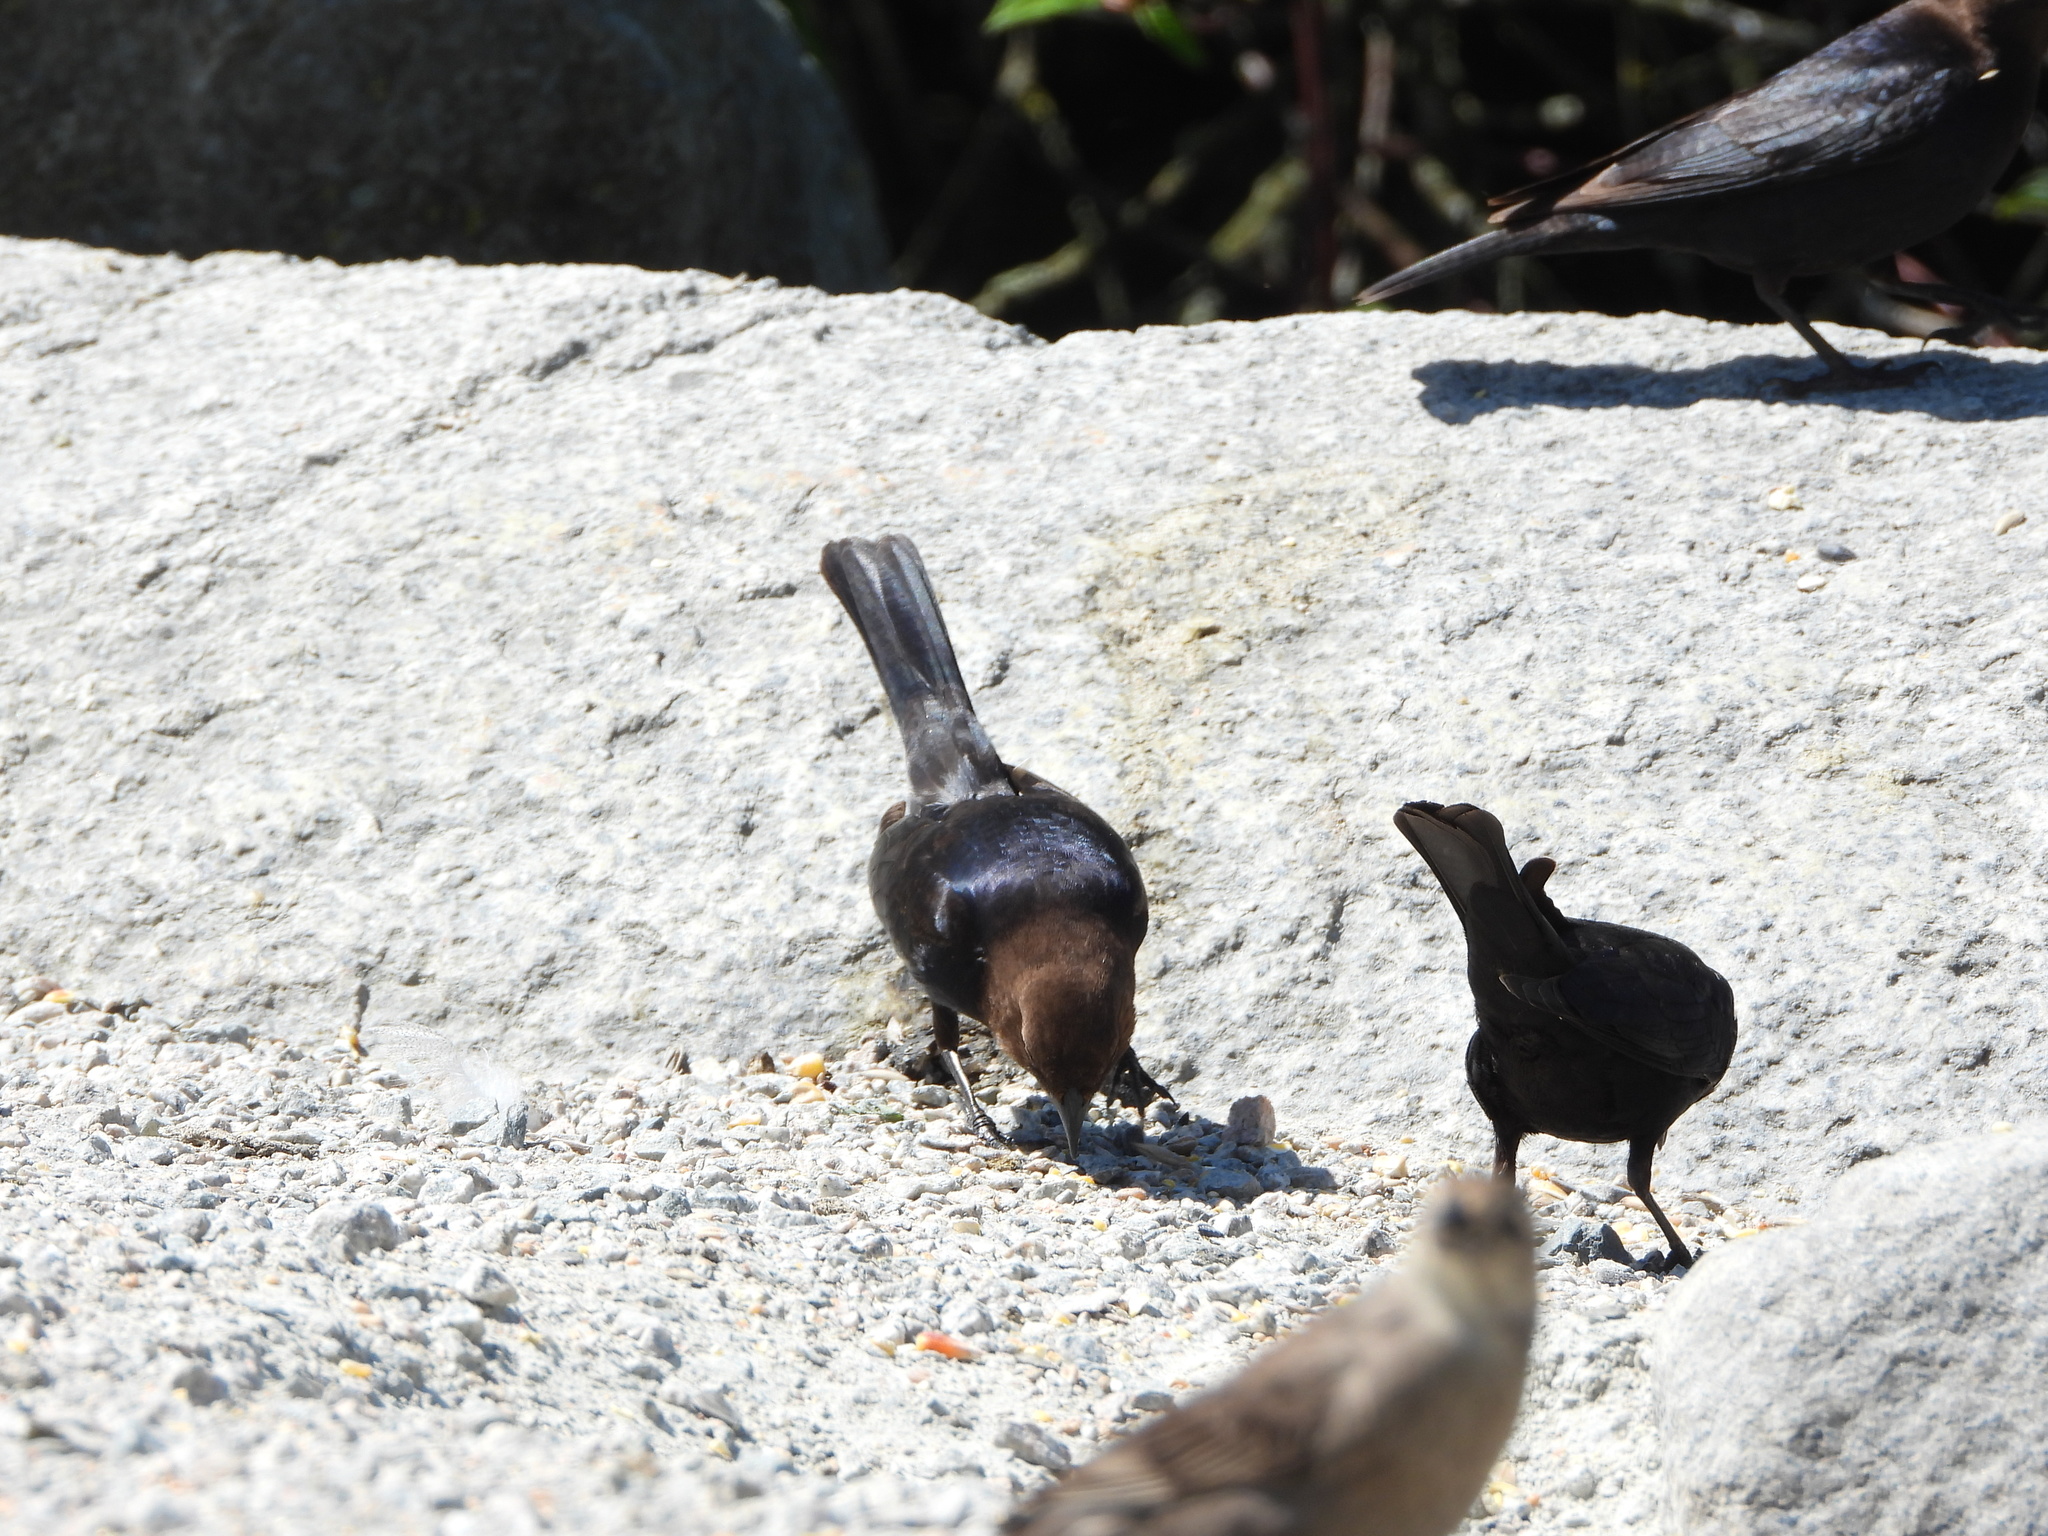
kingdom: Animalia
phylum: Chordata
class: Aves
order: Passeriformes
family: Icteridae
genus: Molothrus
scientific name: Molothrus ater
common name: Brown-headed cowbird
